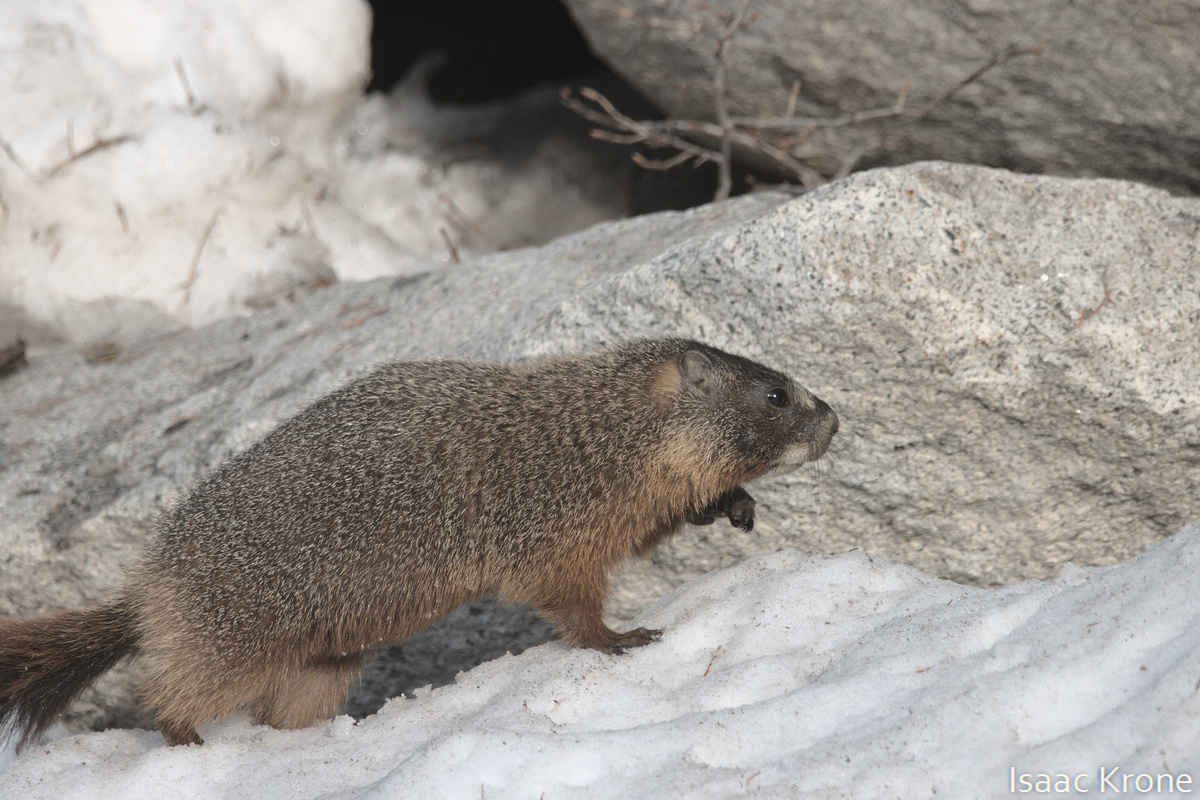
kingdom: Animalia
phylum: Chordata
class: Mammalia
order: Rodentia
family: Sciuridae
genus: Marmota
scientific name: Marmota flaviventris
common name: Yellow-bellied marmot
